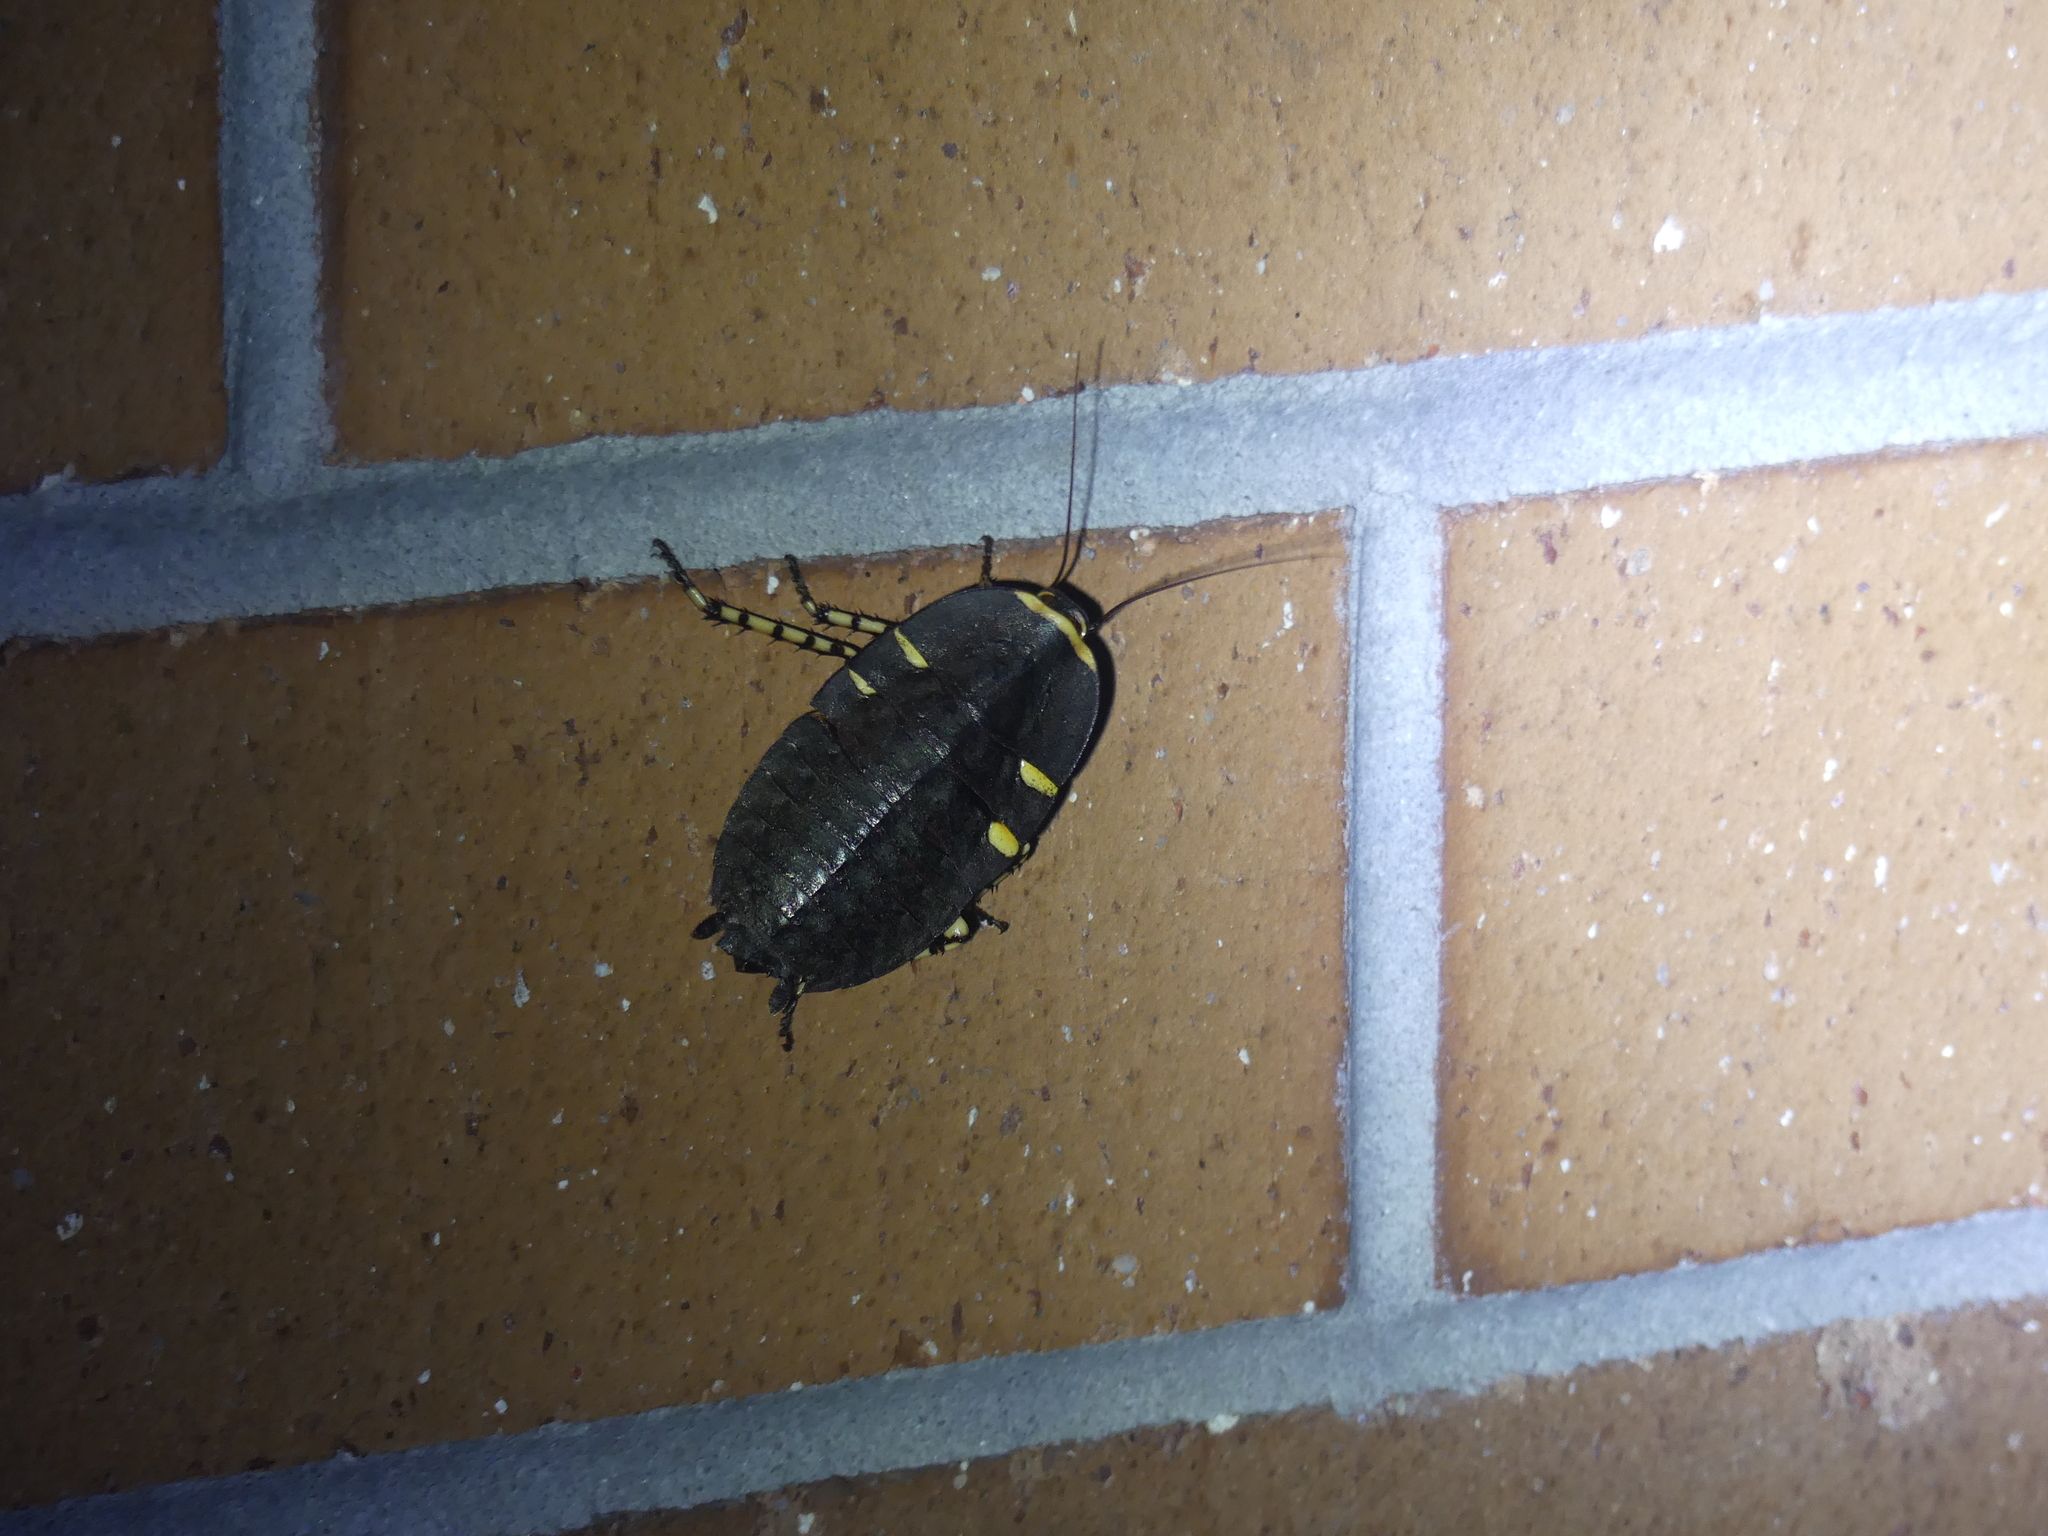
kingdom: Animalia
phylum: Arthropoda
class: Insecta
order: Blattodea
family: Blattidae
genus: Polyzosteria
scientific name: Polyzosteria cuprea
